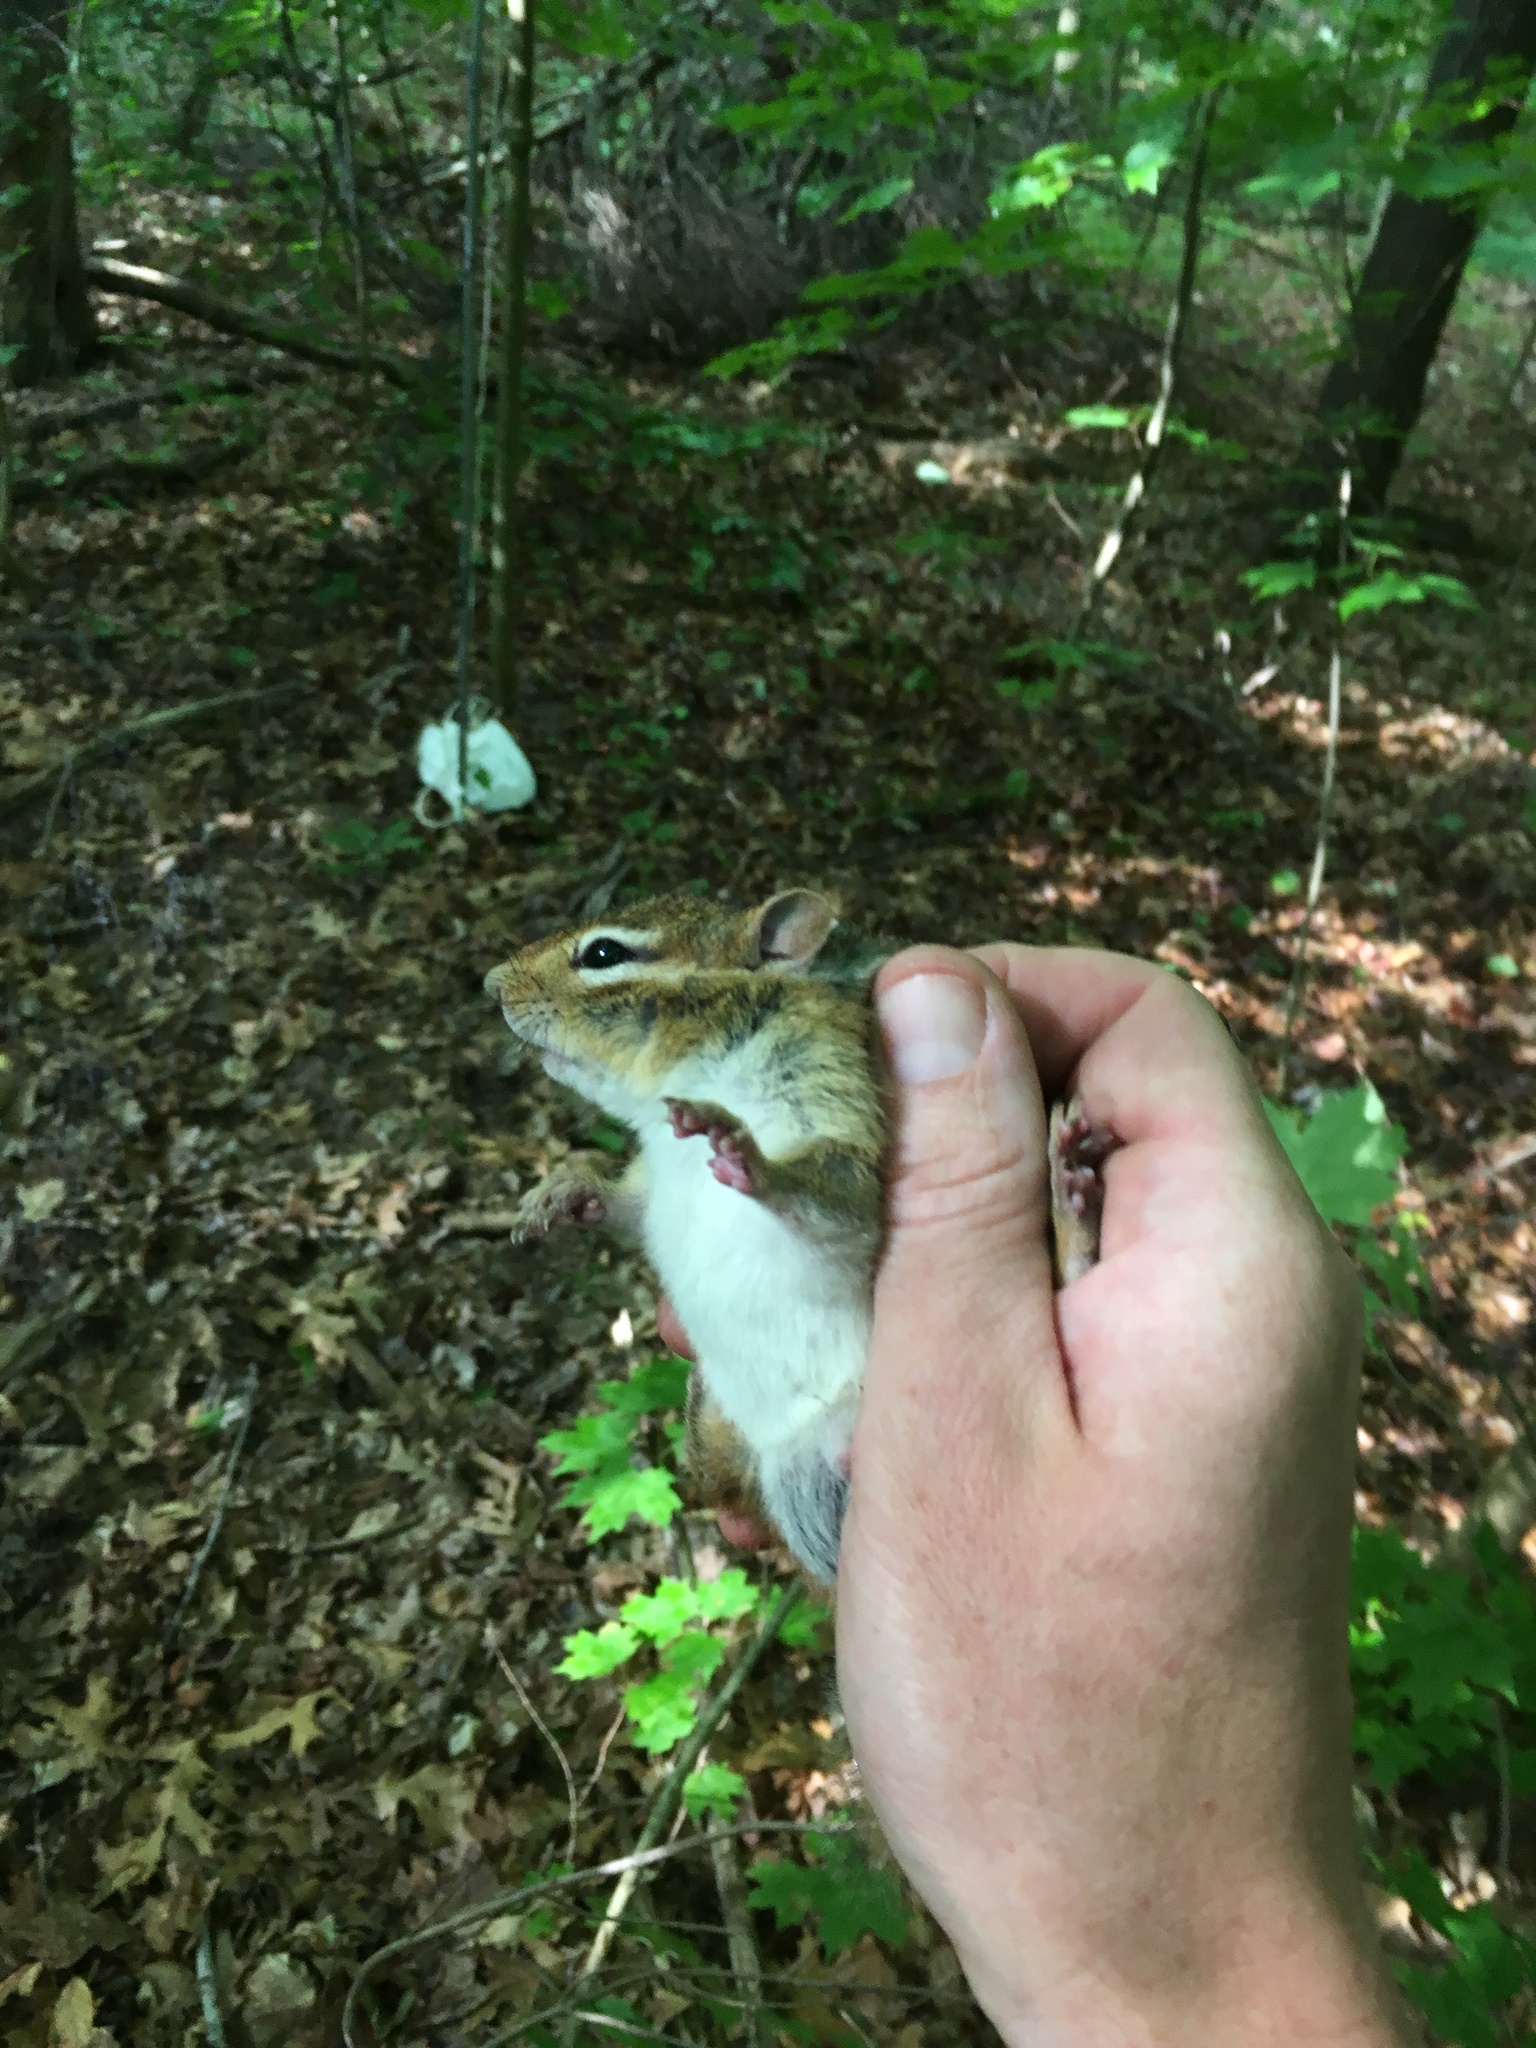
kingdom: Animalia
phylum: Chordata
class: Mammalia
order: Rodentia
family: Sciuridae
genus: Tamias
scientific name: Tamias striatus
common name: Eastern chipmunk
